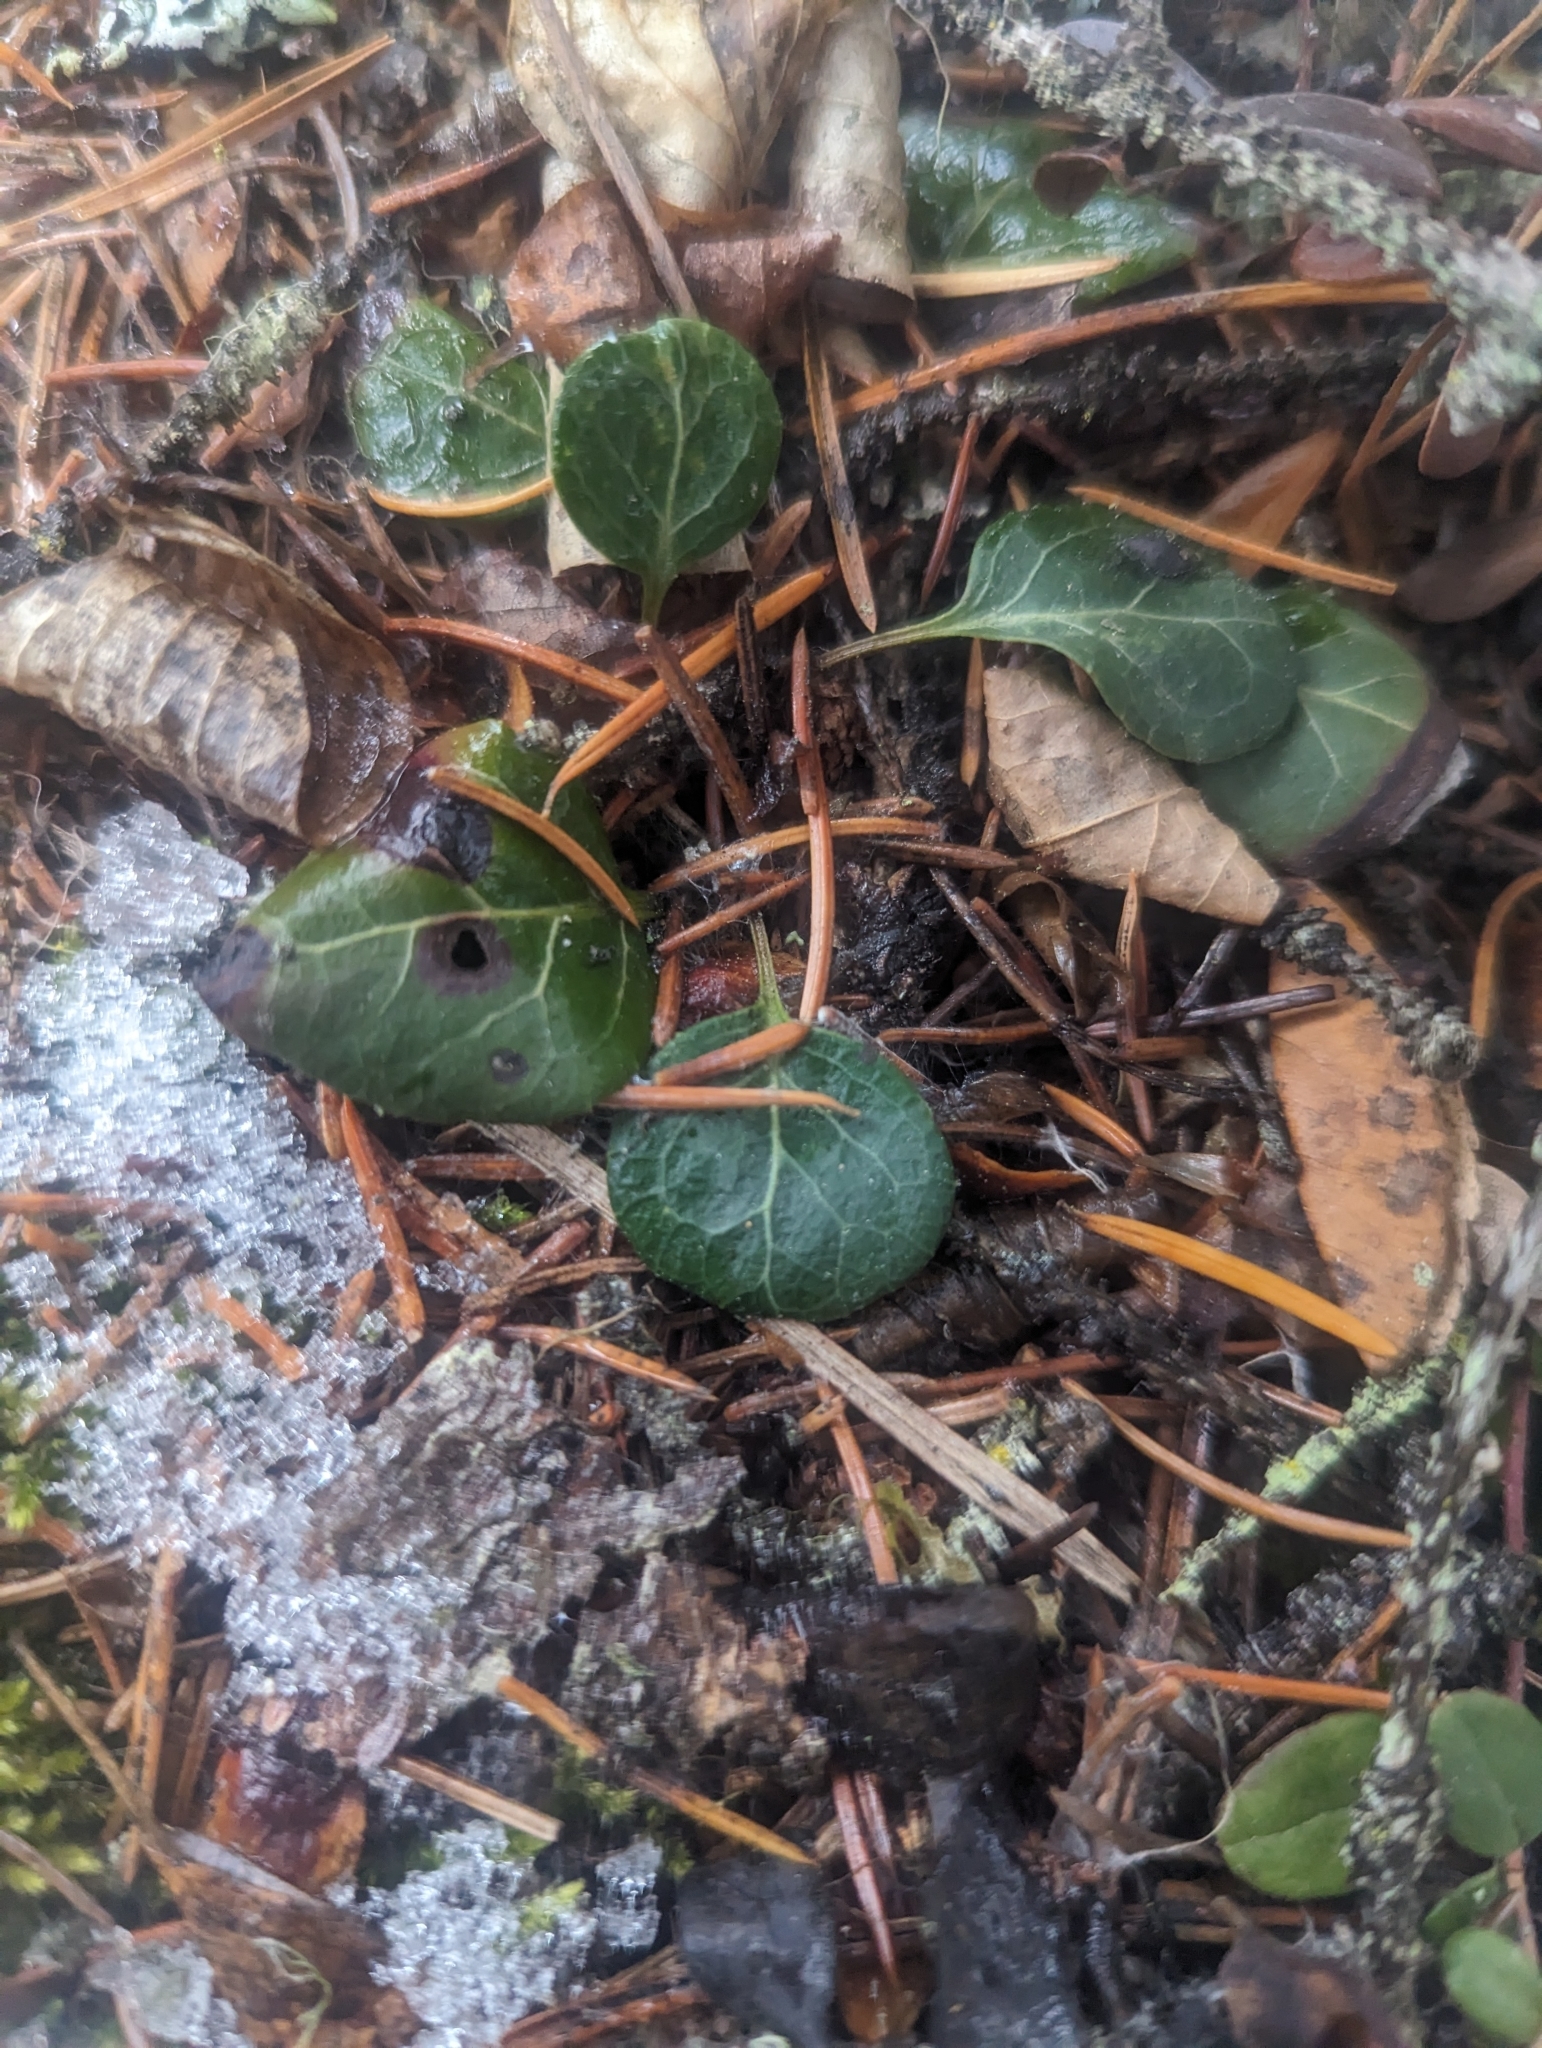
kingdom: Plantae
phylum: Tracheophyta
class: Magnoliopsida
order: Ericales
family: Ericaceae
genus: Pyrola
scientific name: Pyrola chlorantha
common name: Green wintergreen
